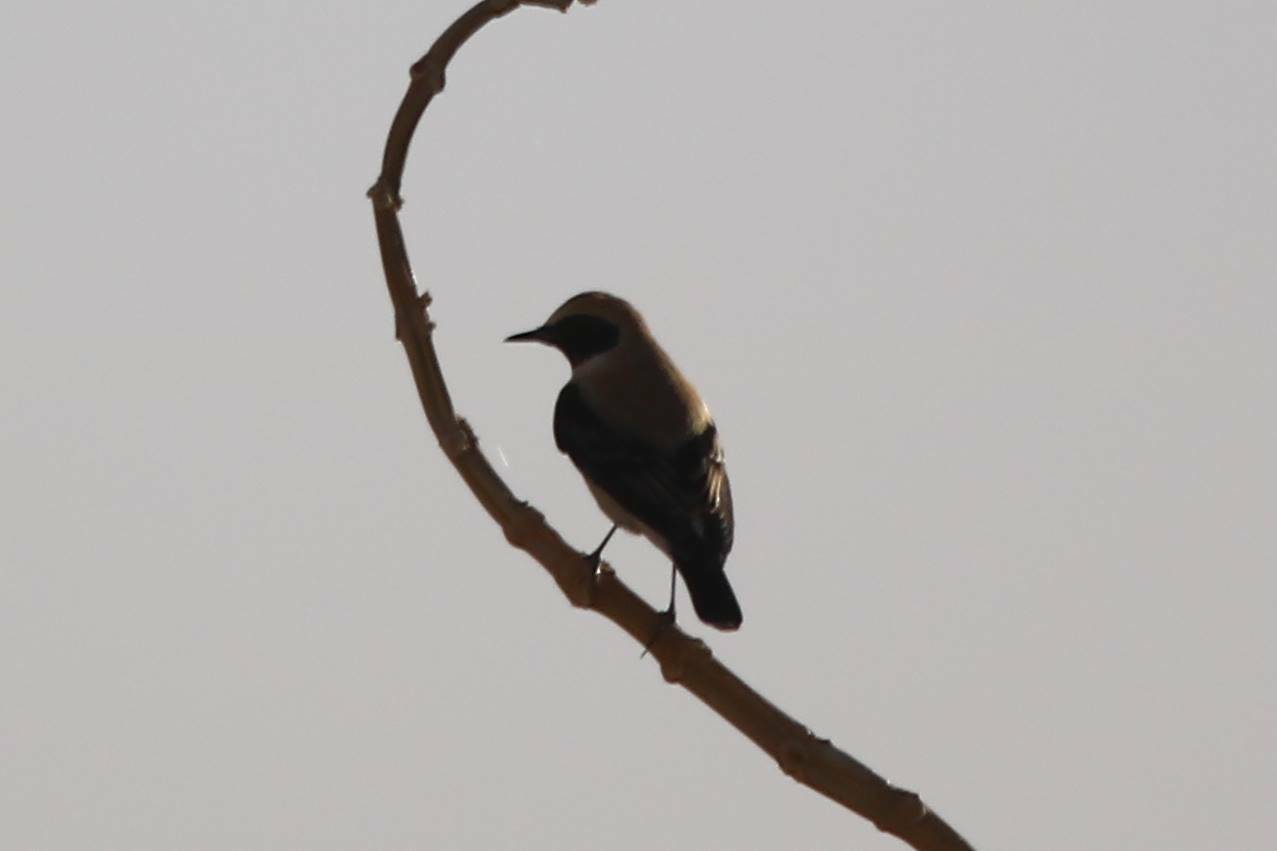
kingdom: Animalia
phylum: Chordata
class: Aves
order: Passeriformes
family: Muscicapidae
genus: Oenanthe
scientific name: Oenanthe deserti
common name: Desert wheatear
